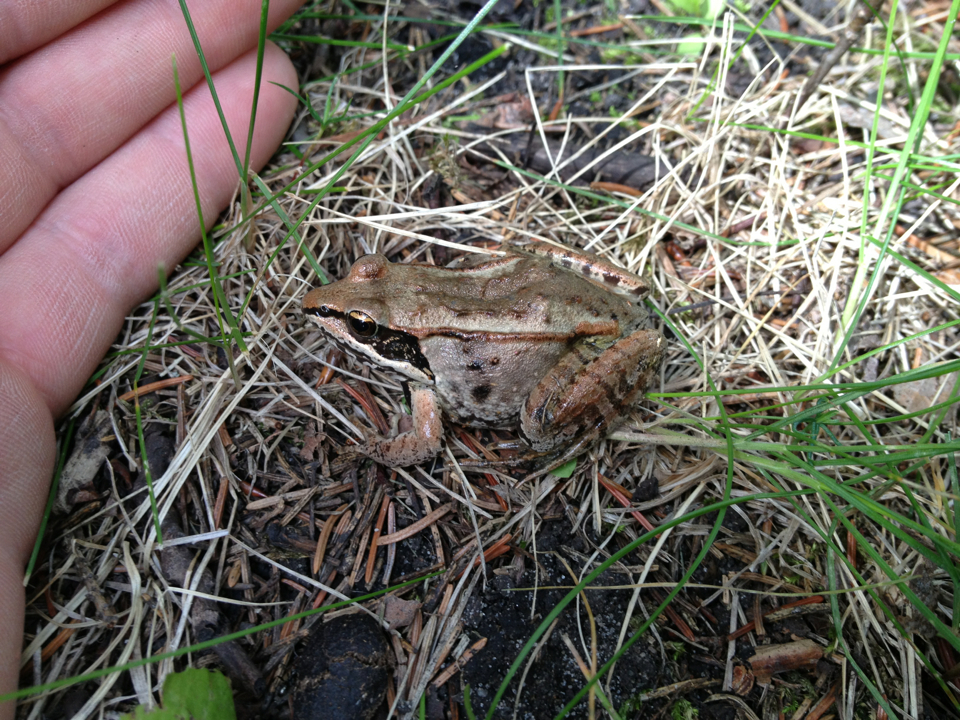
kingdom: Animalia
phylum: Chordata
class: Amphibia
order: Anura
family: Ranidae
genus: Lithobates
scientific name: Lithobates sylvaticus
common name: Wood frog
